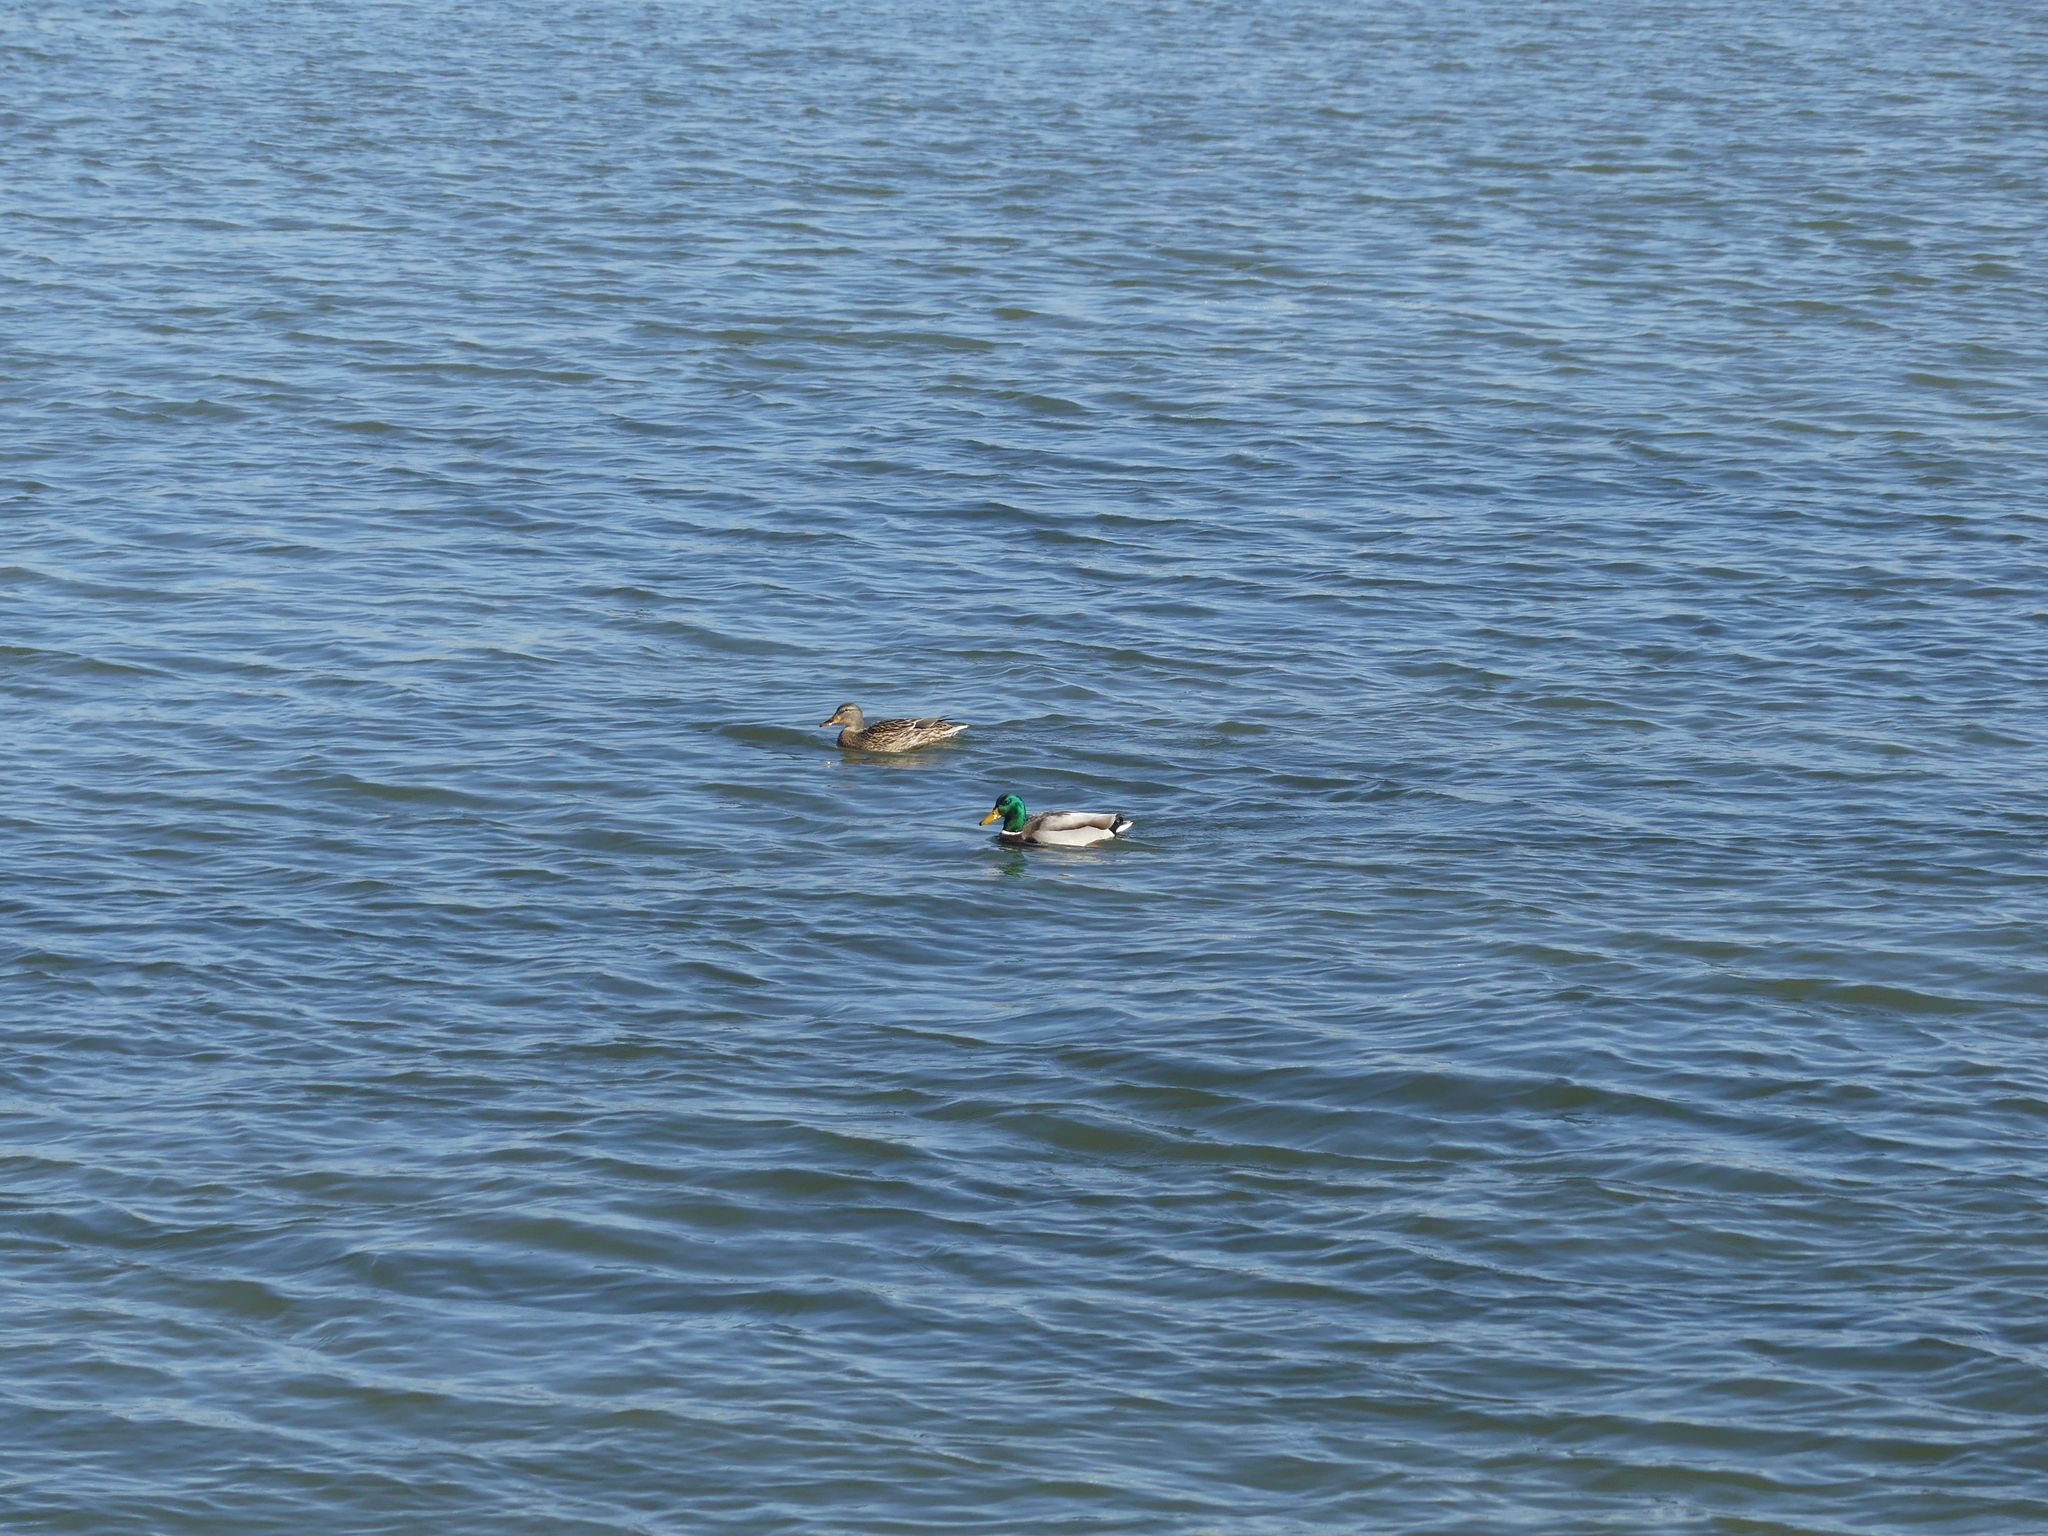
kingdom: Animalia
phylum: Chordata
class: Aves
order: Anseriformes
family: Anatidae
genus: Anas
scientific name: Anas platyrhynchos
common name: Mallard
